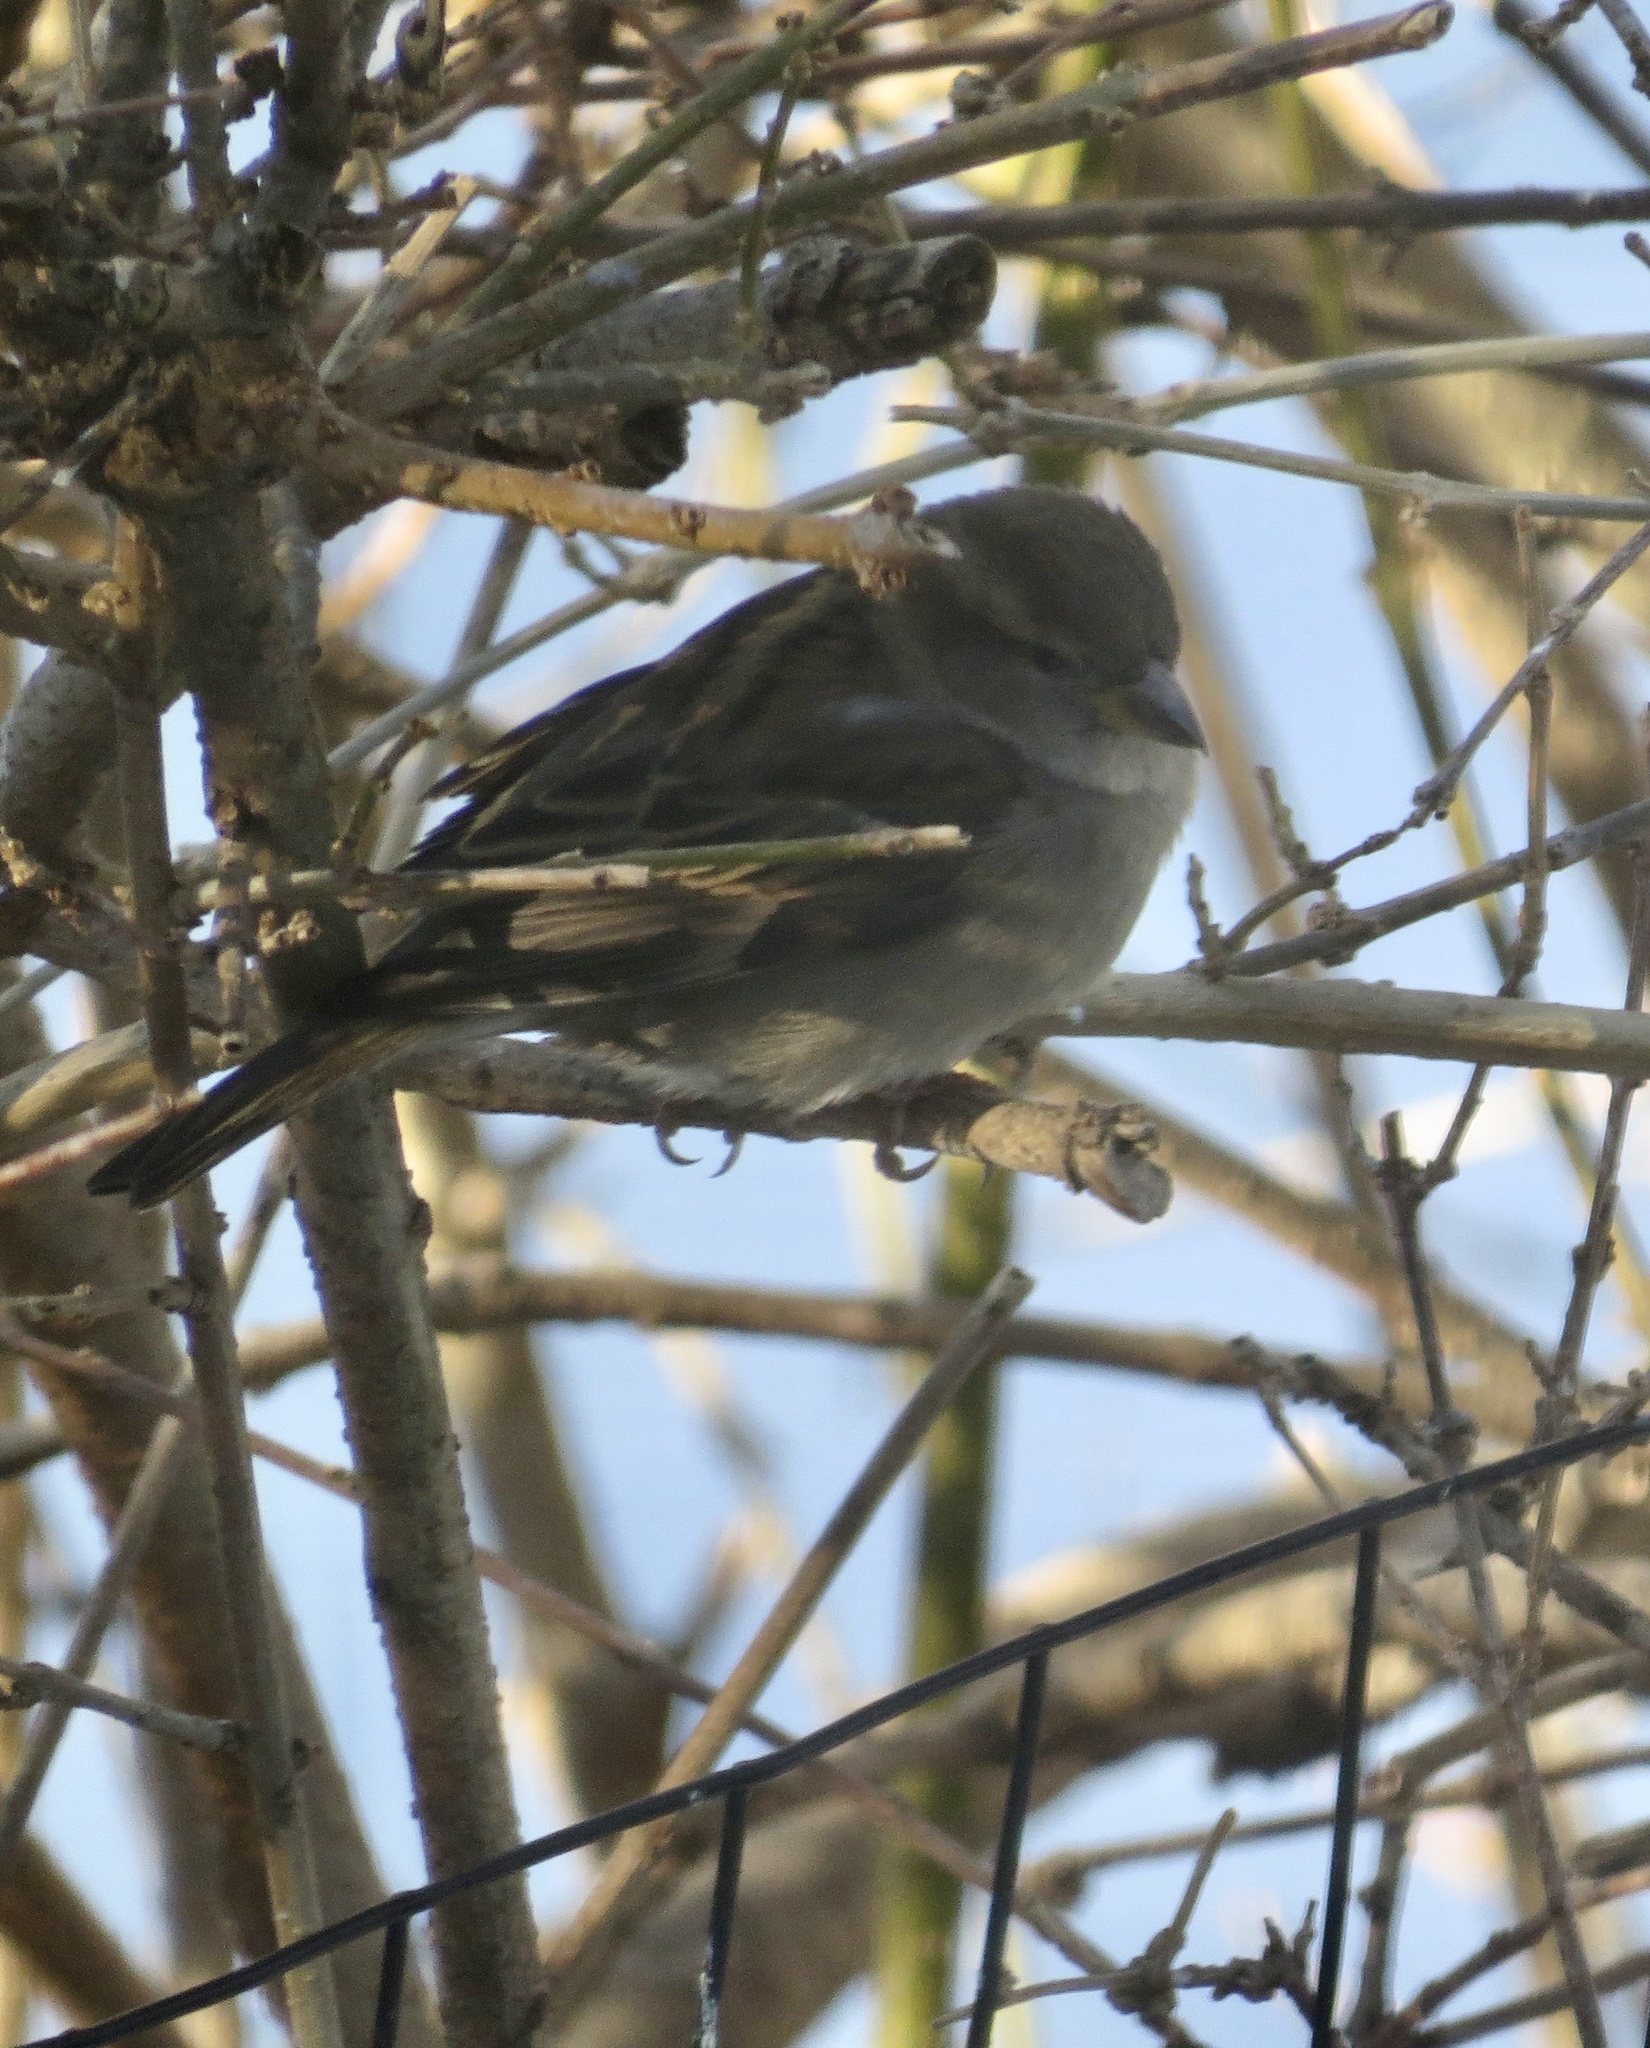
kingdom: Animalia
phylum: Chordata
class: Aves
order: Passeriformes
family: Passeridae
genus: Passer
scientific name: Passer domesticus
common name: House sparrow
